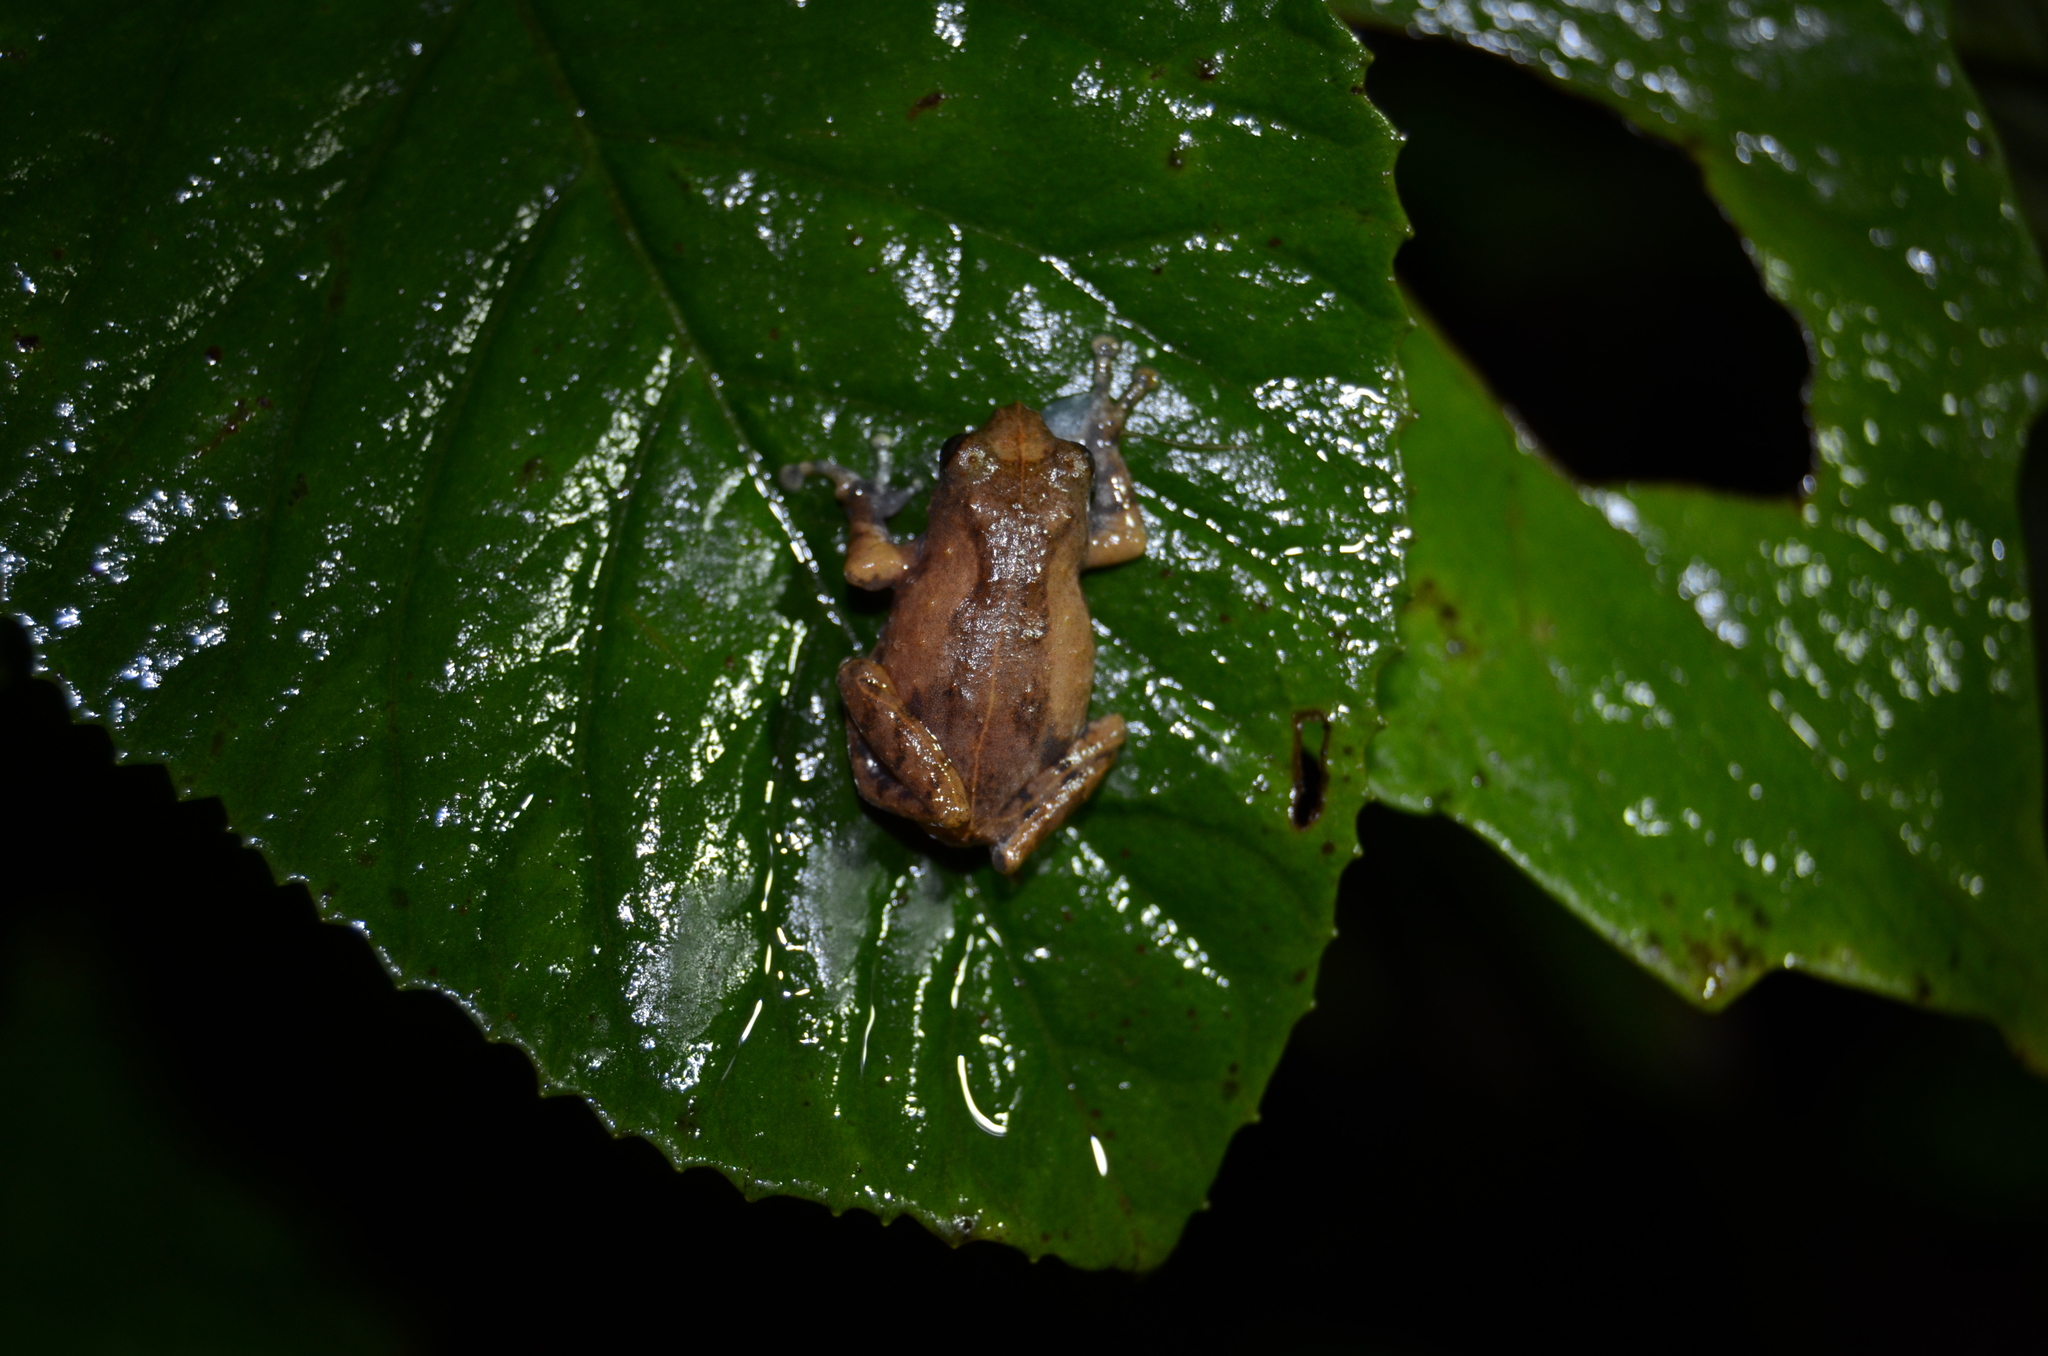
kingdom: Animalia
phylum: Chordata
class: Amphibia
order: Anura
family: Rhacophoridae
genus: Raorchestes
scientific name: Raorchestes tuberohumerus
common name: Kudremukh bush frog
